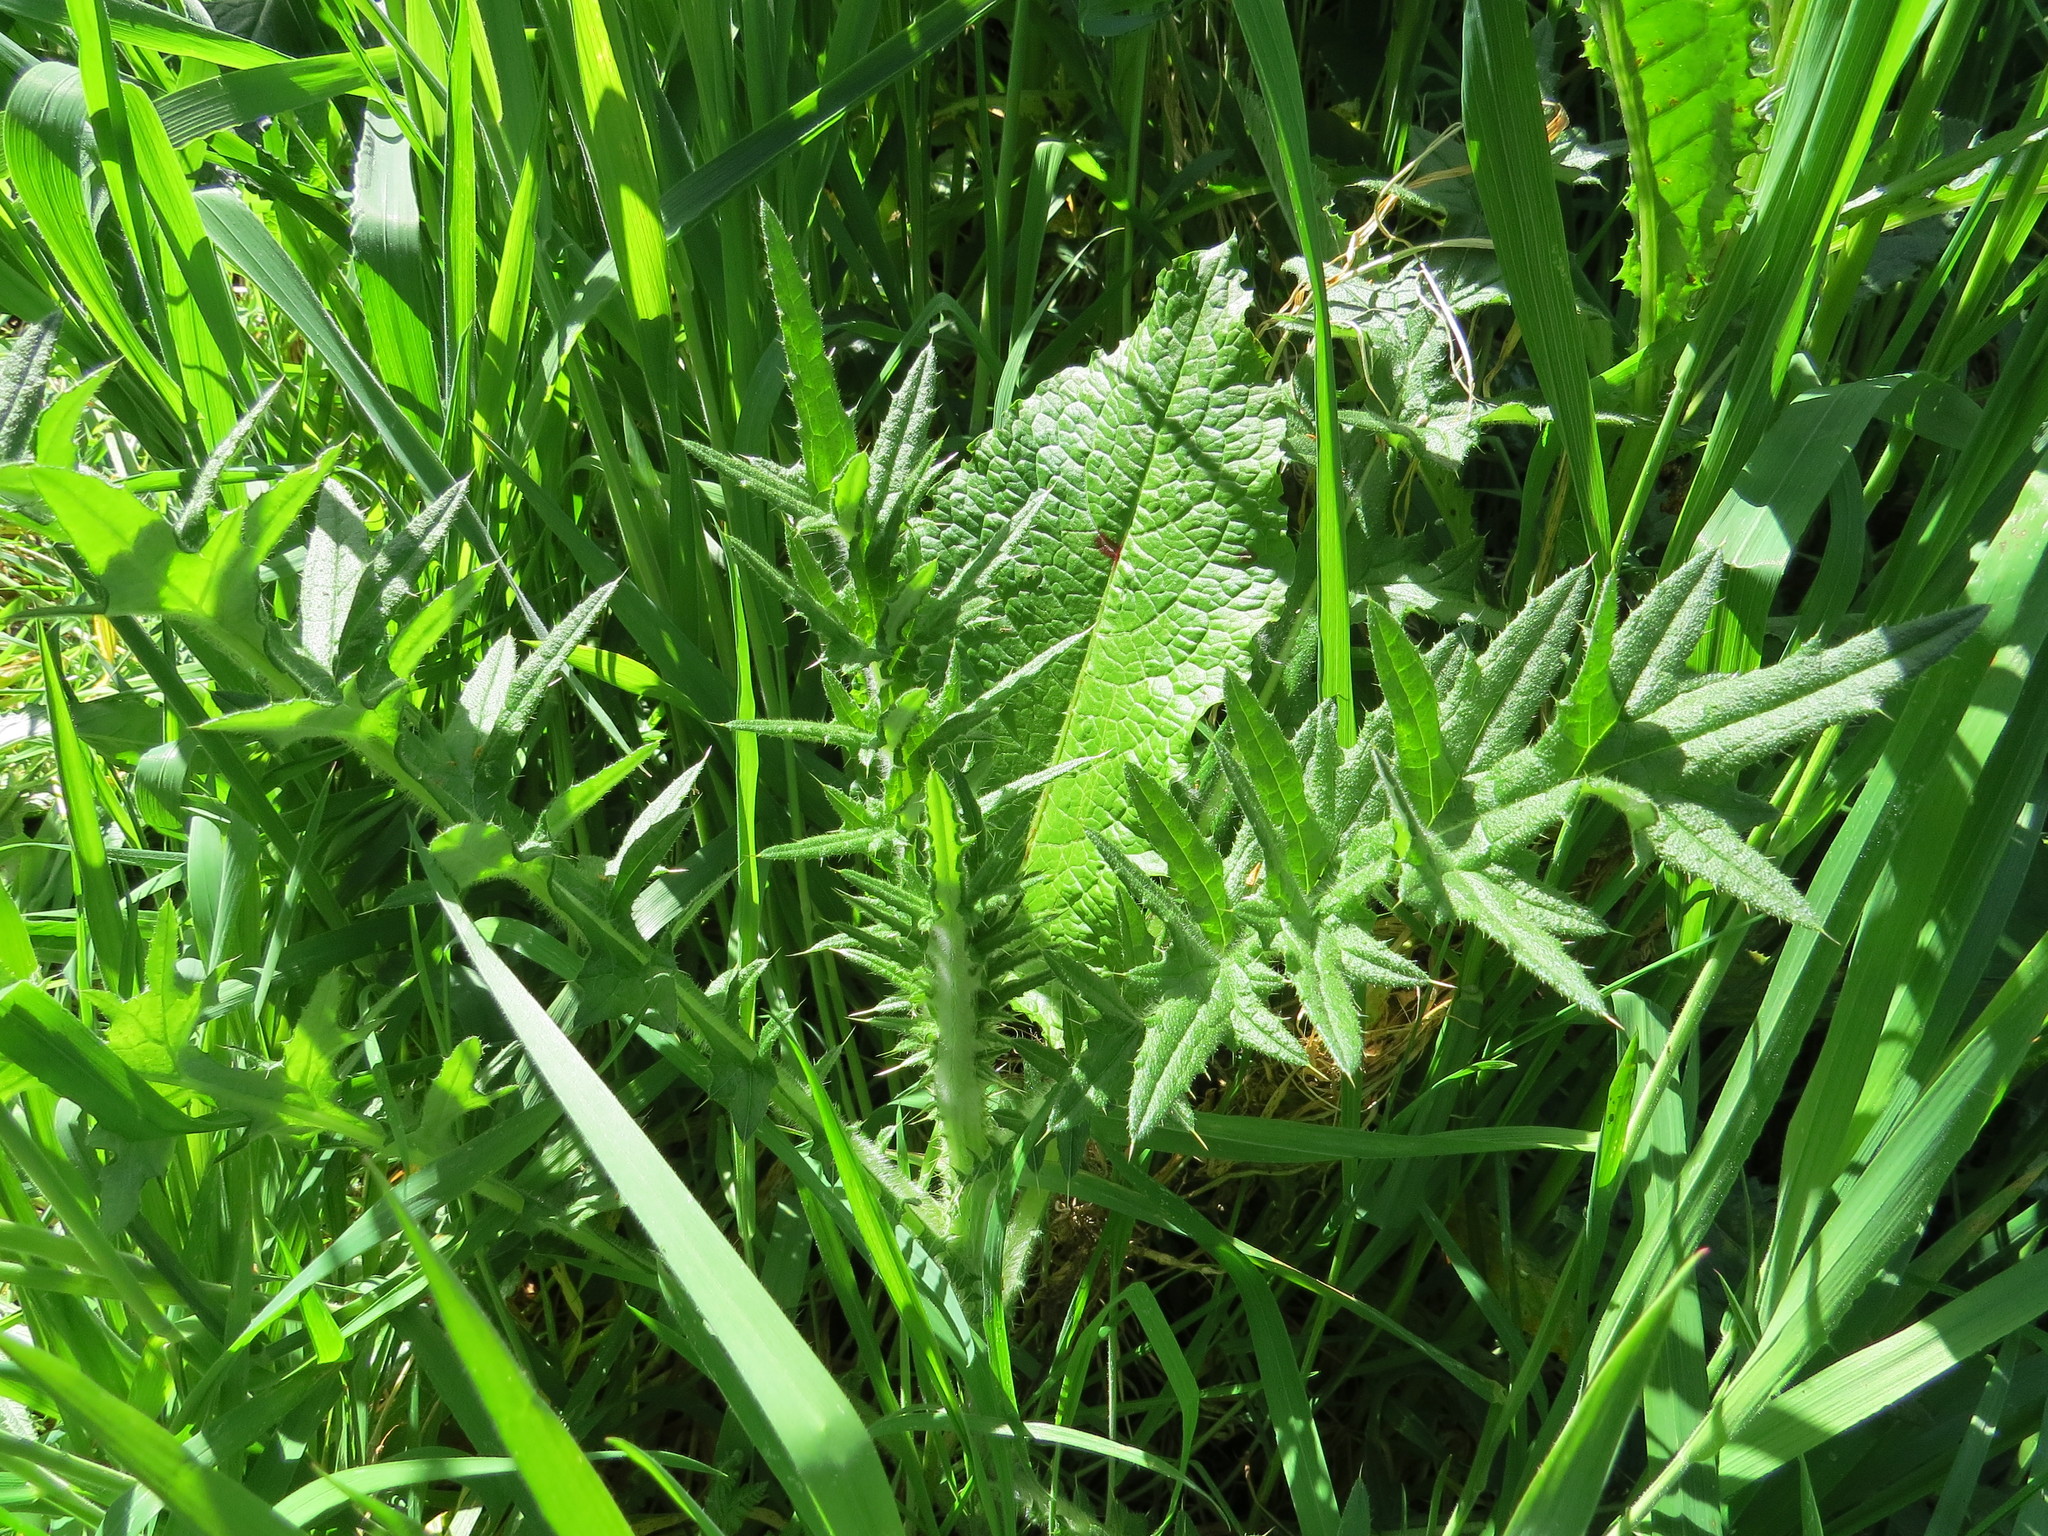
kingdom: Plantae
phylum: Tracheophyta
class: Magnoliopsida
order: Asterales
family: Asteraceae
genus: Cirsium
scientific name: Cirsium vulgare
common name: Bull thistle
